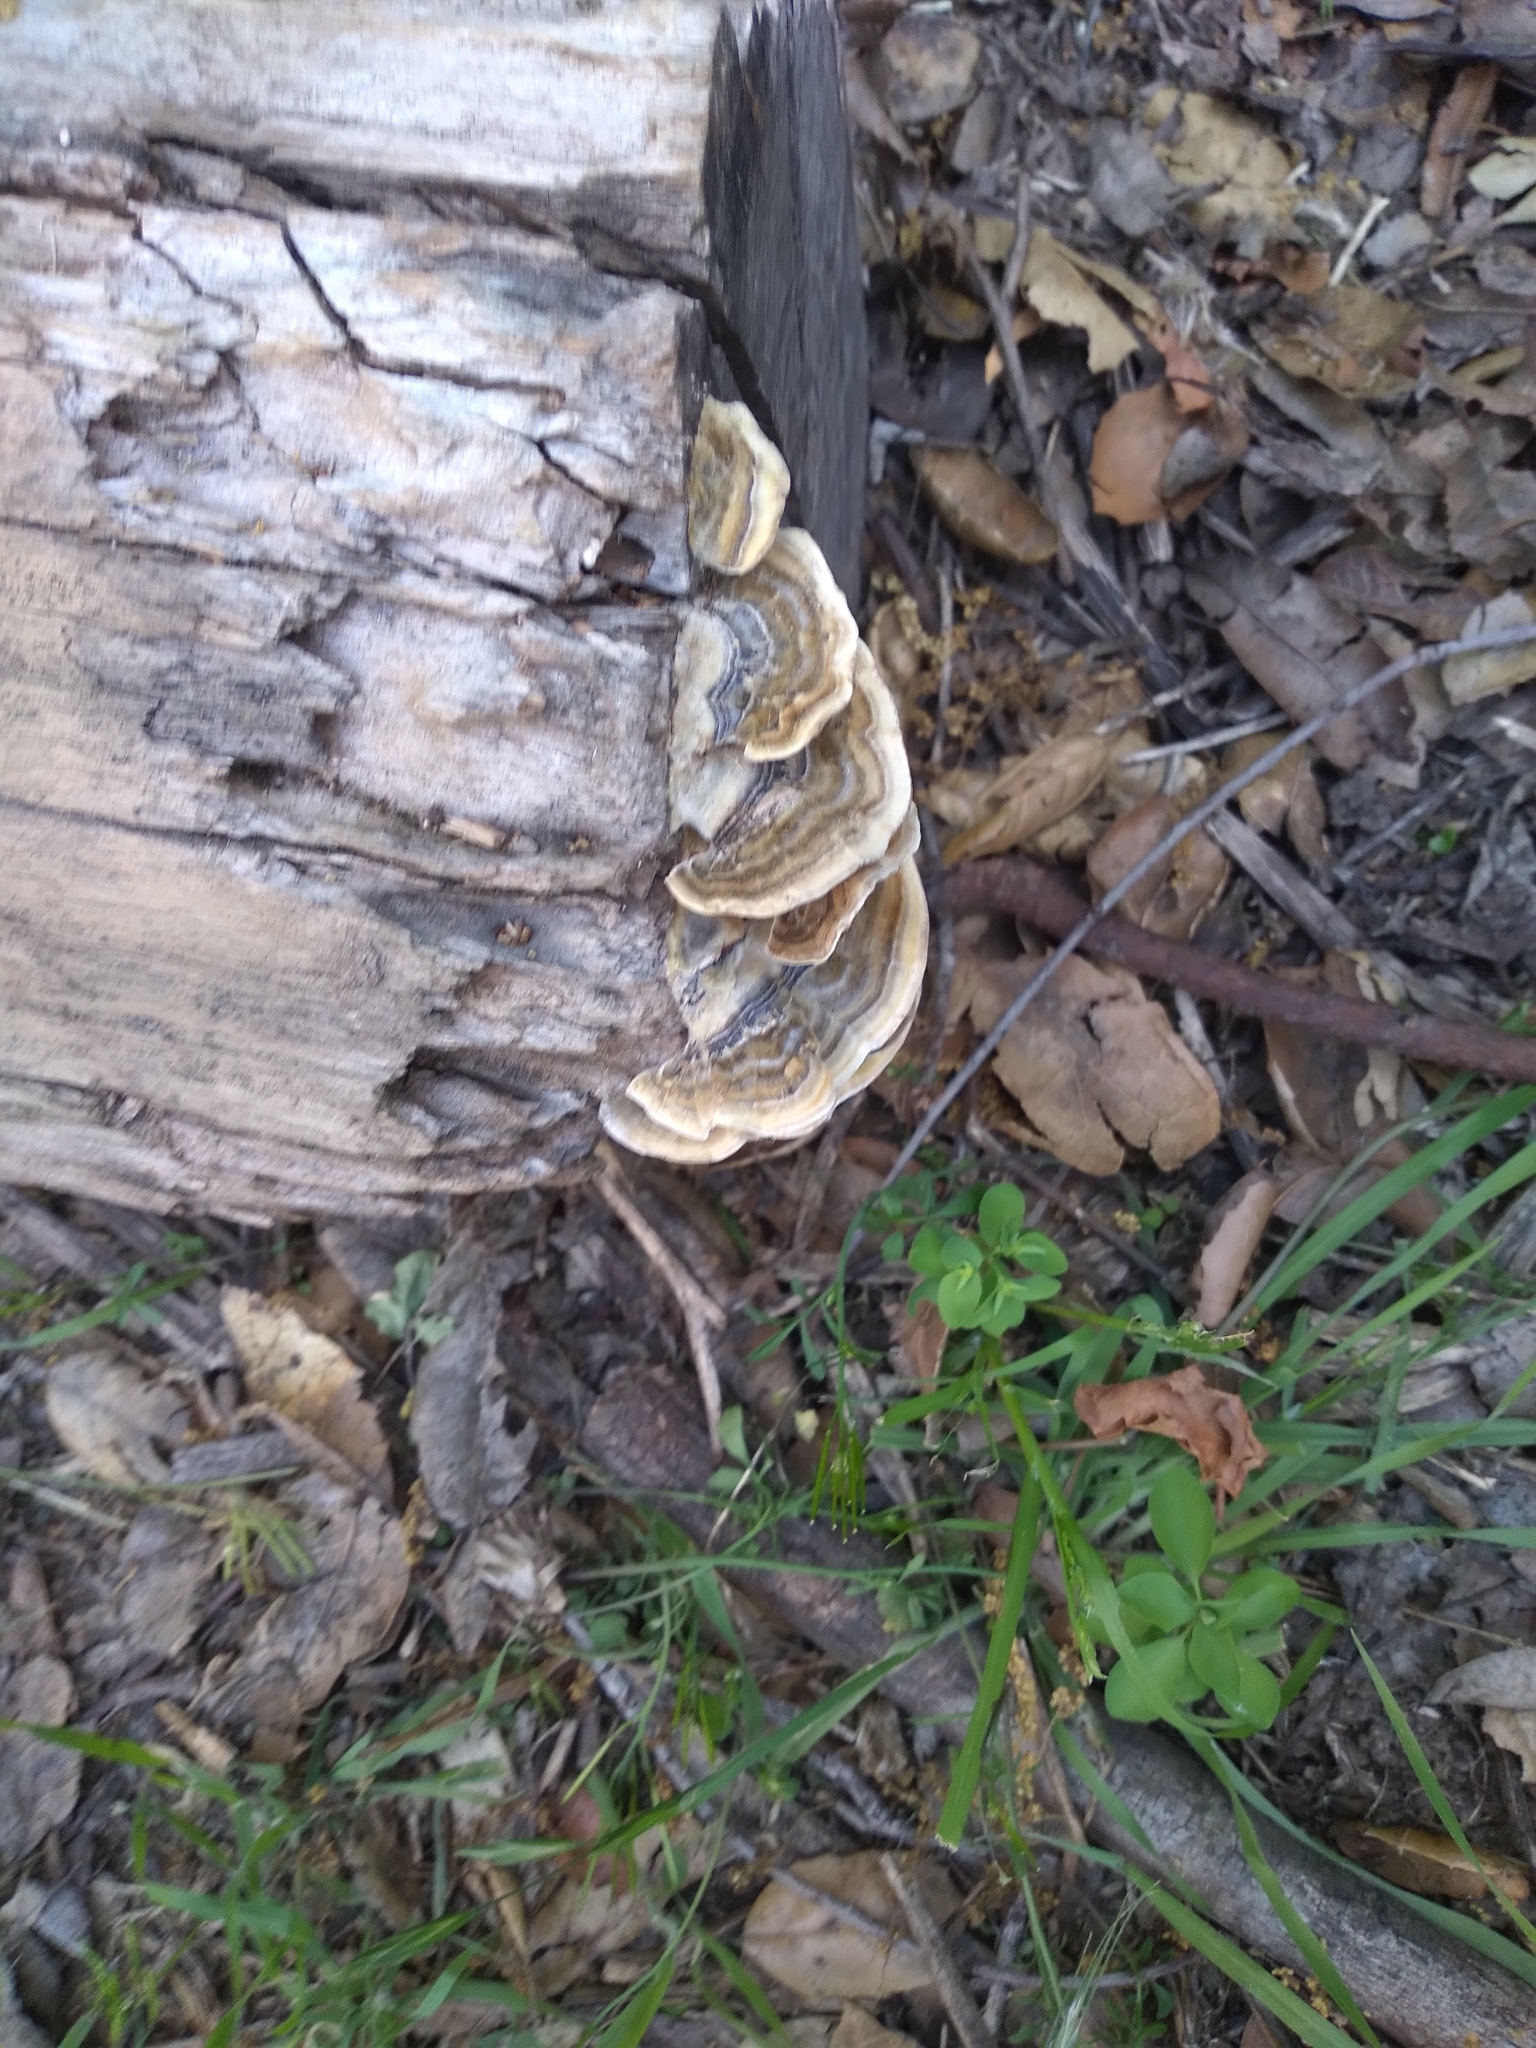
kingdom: Fungi
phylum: Basidiomycota
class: Agaricomycetes
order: Polyporales
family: Polyporaceae
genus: Trametes
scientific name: Trametes versicolor
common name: Turkeytail
